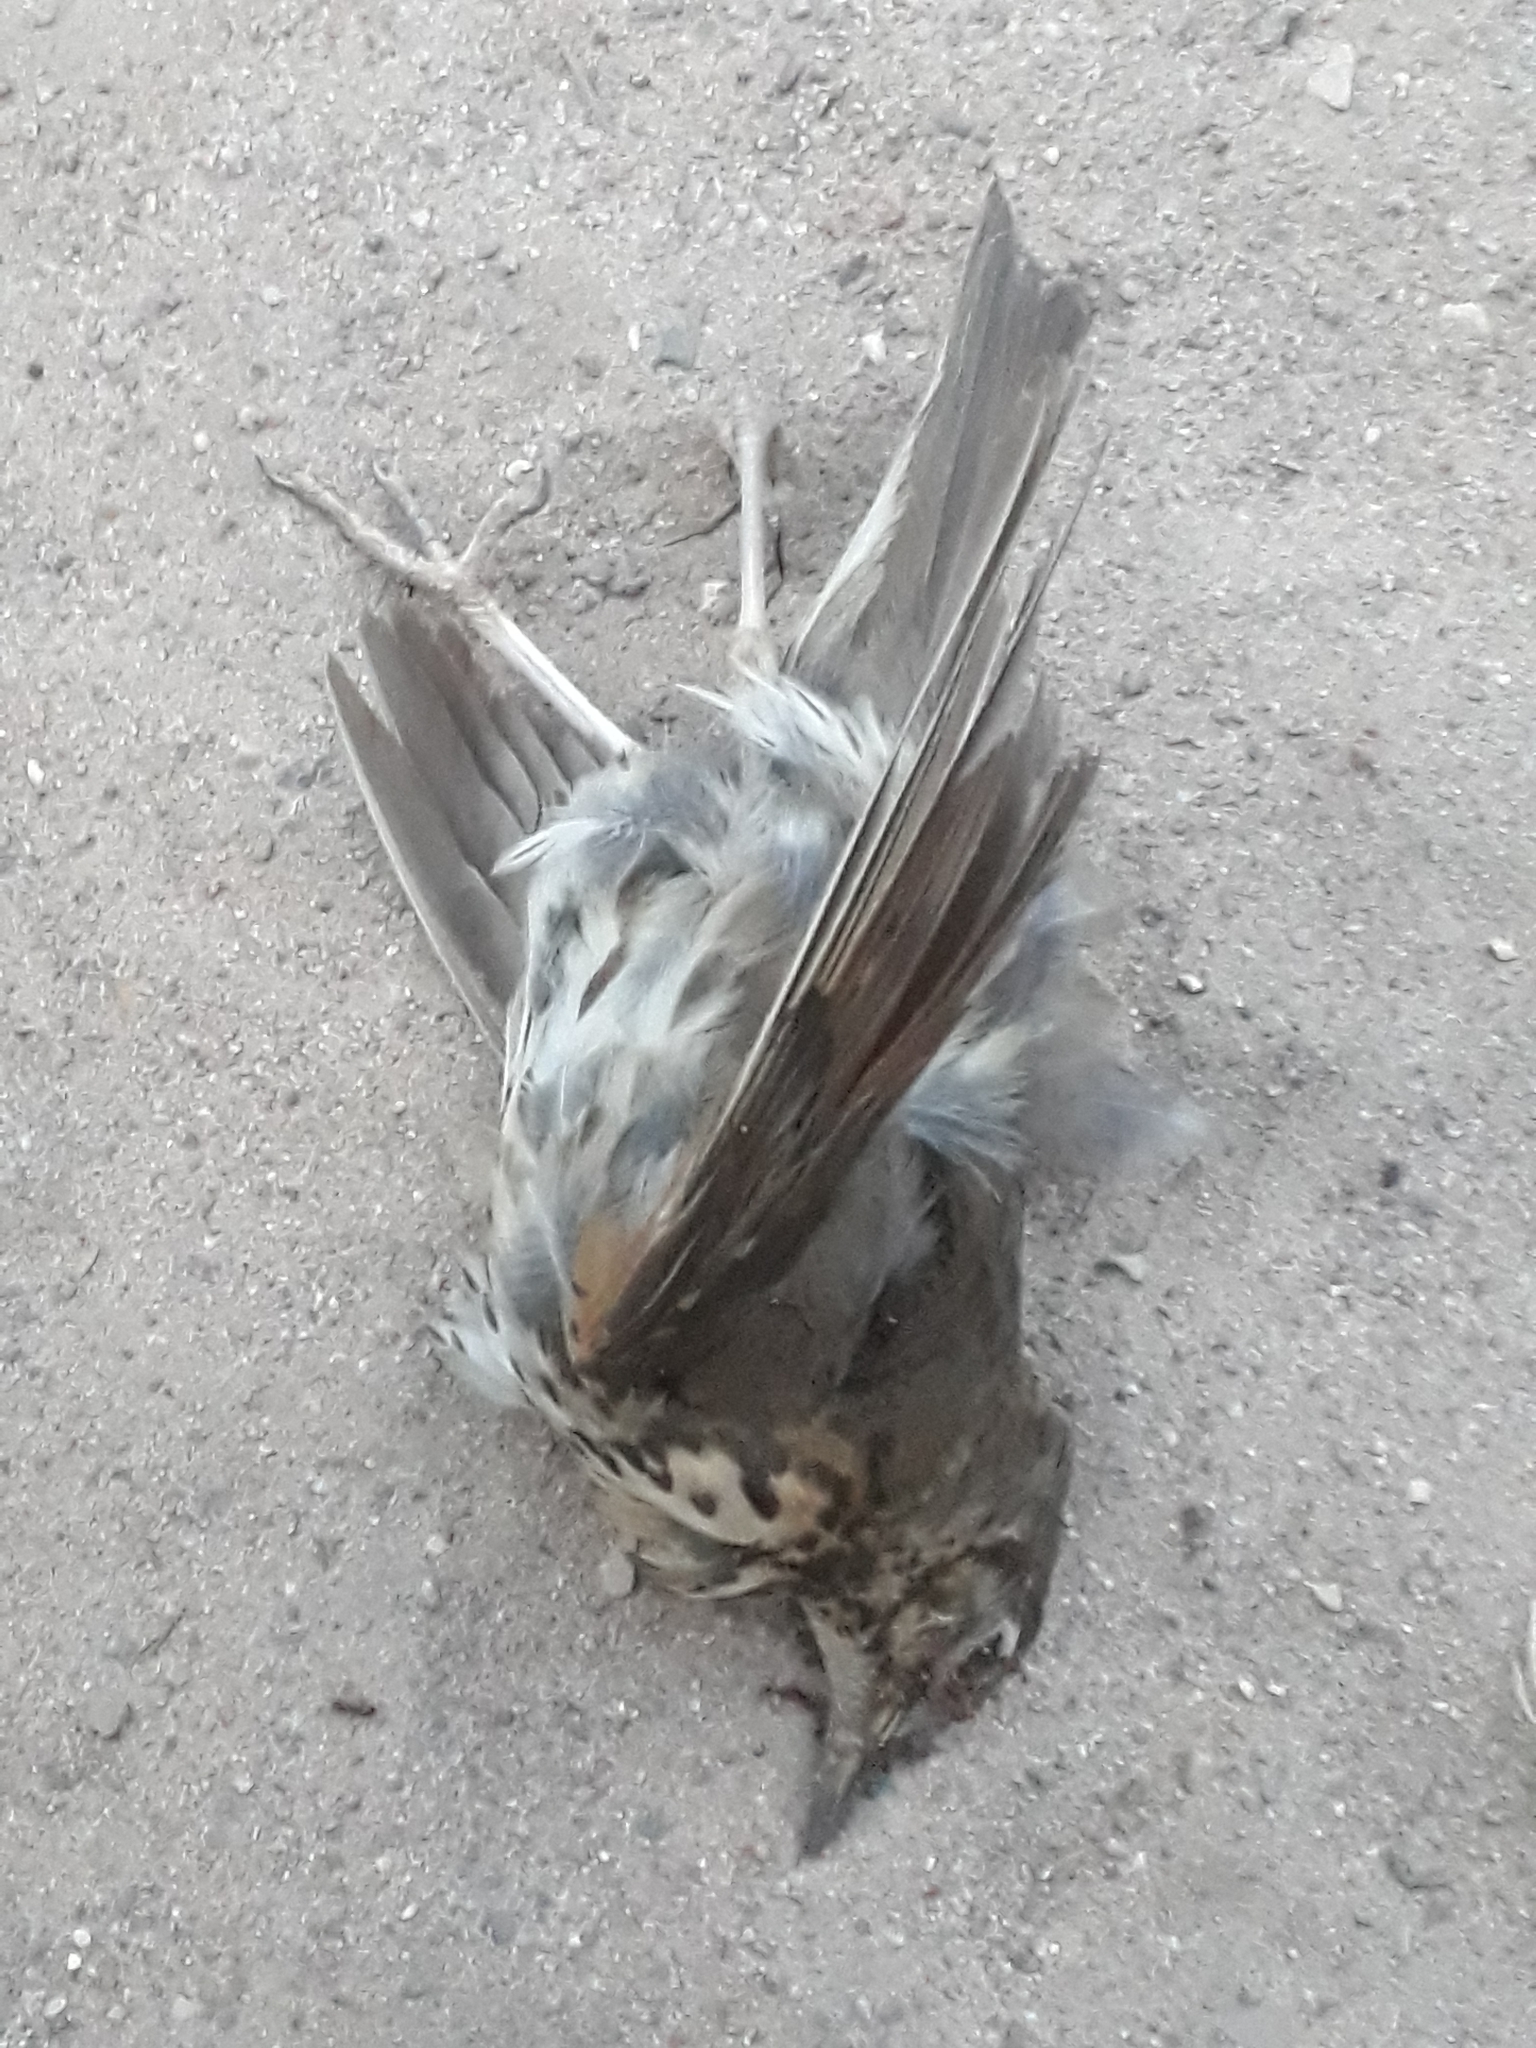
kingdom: Animalia
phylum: Chordata
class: Aves
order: Passeriformes
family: Turdidae
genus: Turdus
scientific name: Turdus philomelos
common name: Song thrush
